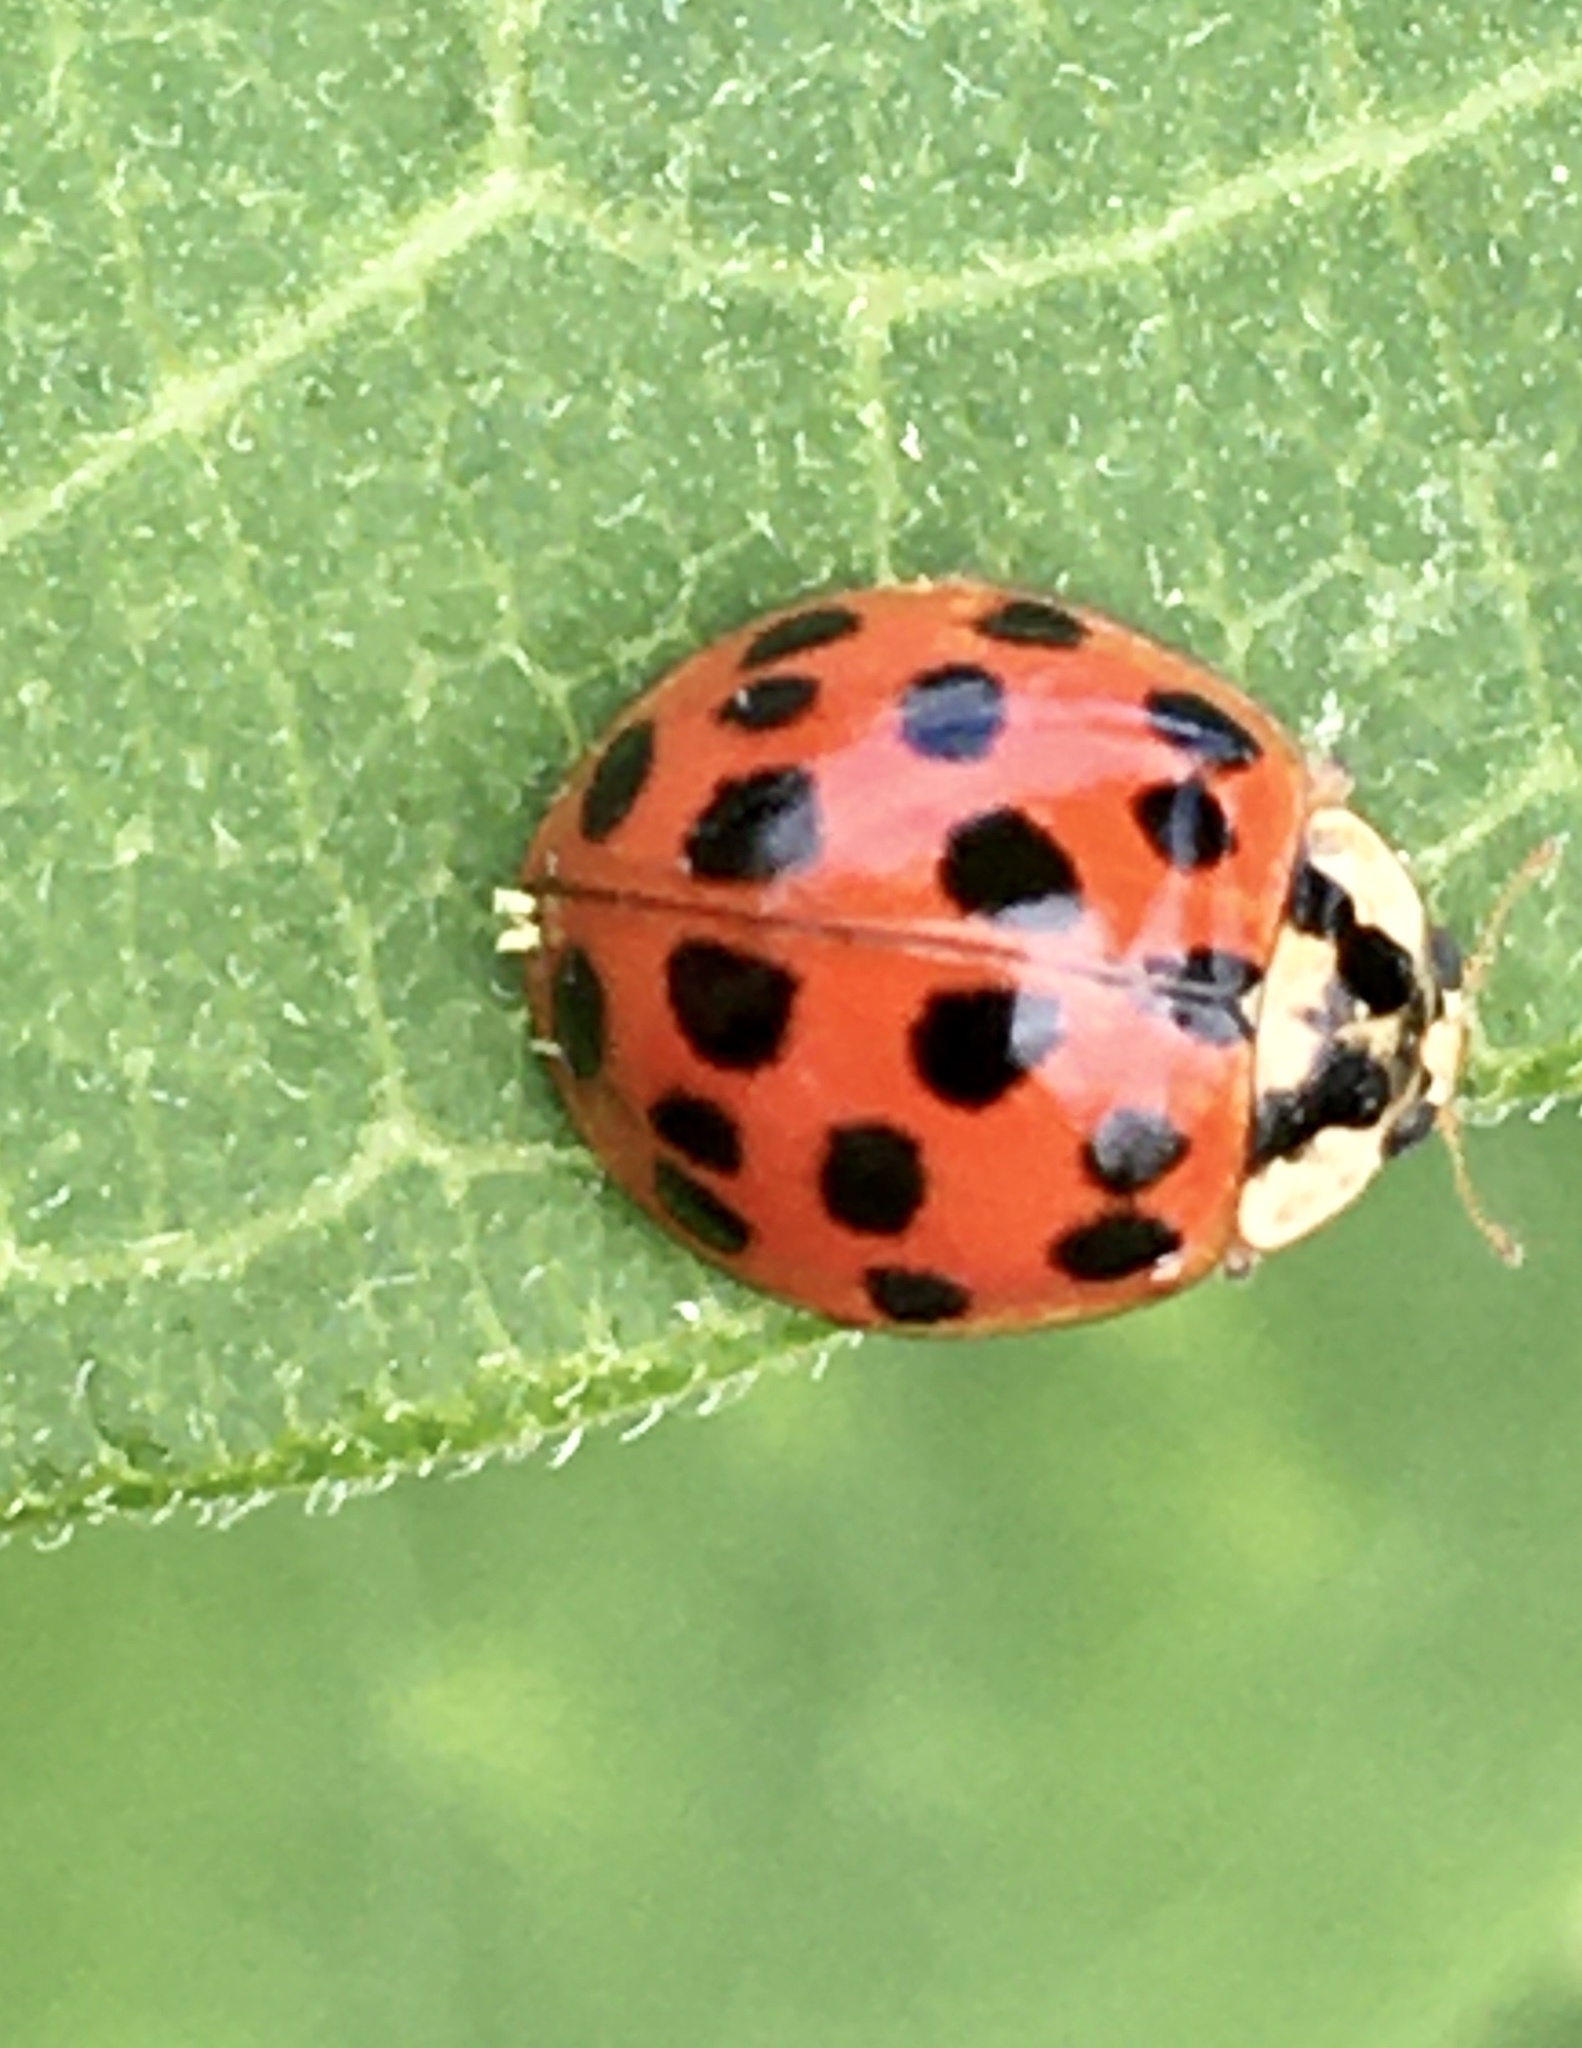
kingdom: Animalia
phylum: Arthropoda
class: Insecta
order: Coleoptera
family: Coccinellidae
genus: Harmonia
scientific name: Harmonia axyridis
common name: Harlequin ladybird
